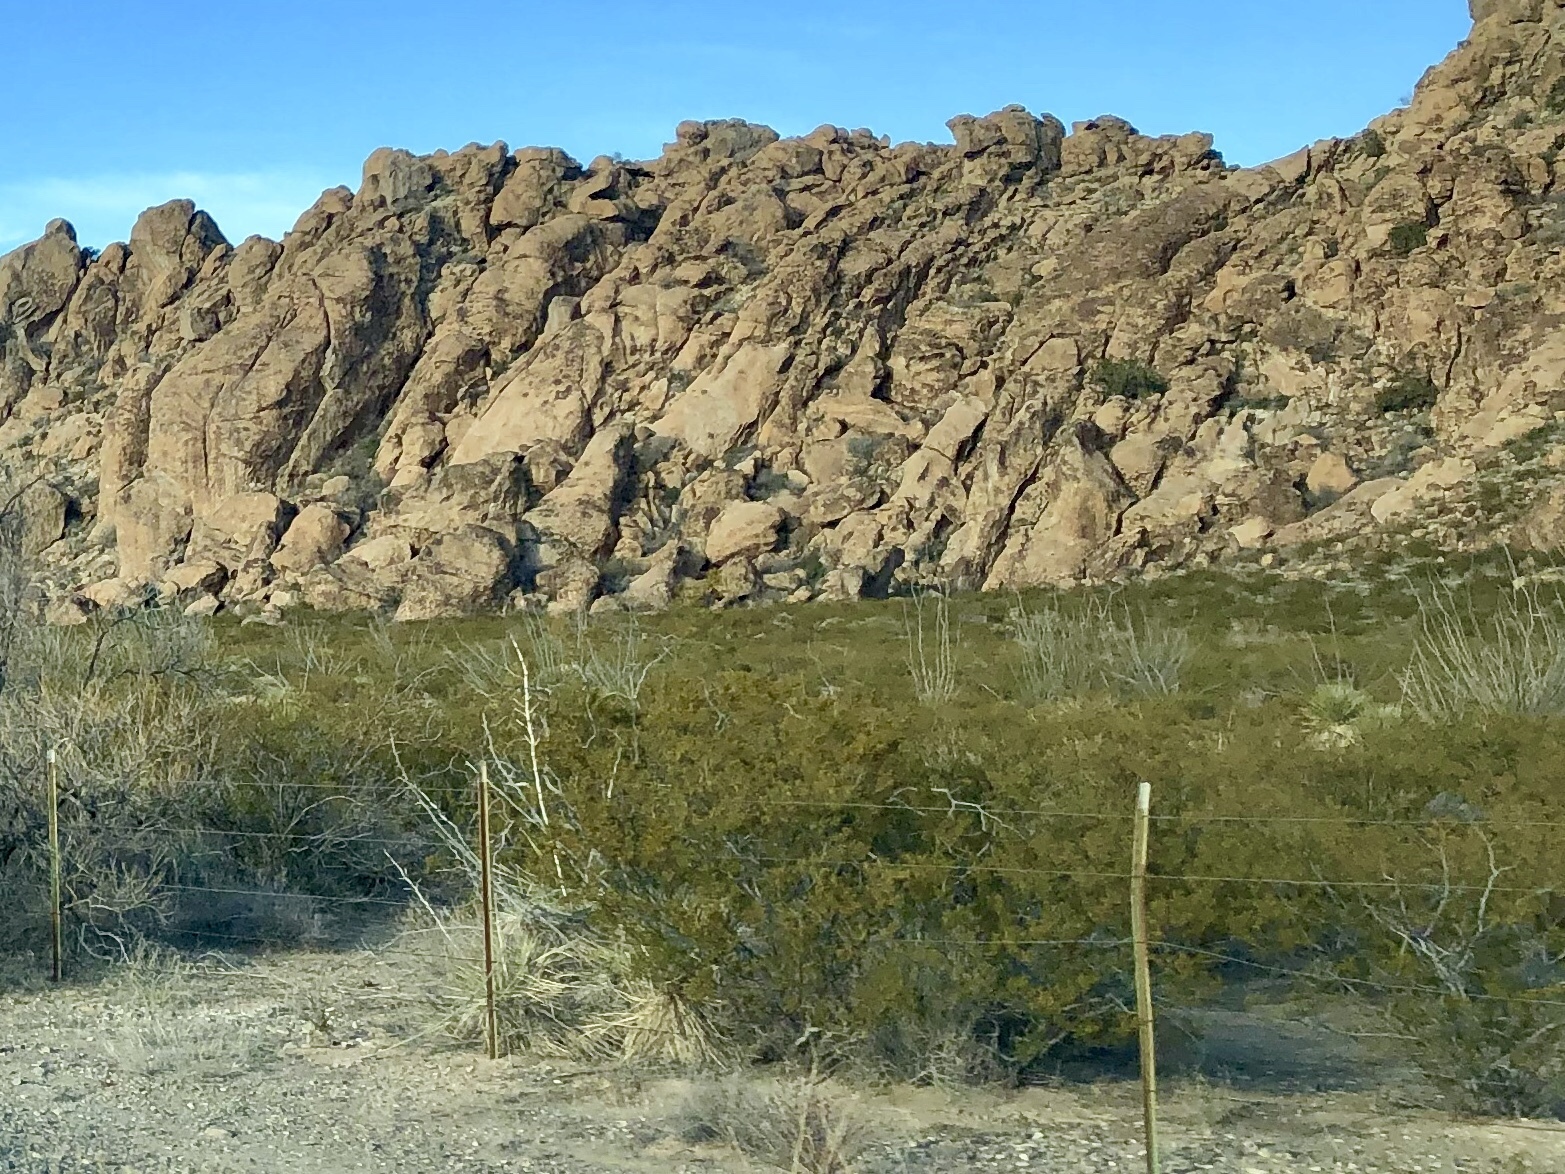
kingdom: Plantae
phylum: Tracheophyta
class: Magnoliopsida
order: Zygophyllales
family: Zygophyllaceae
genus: Larrea
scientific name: Larrea tridentata
